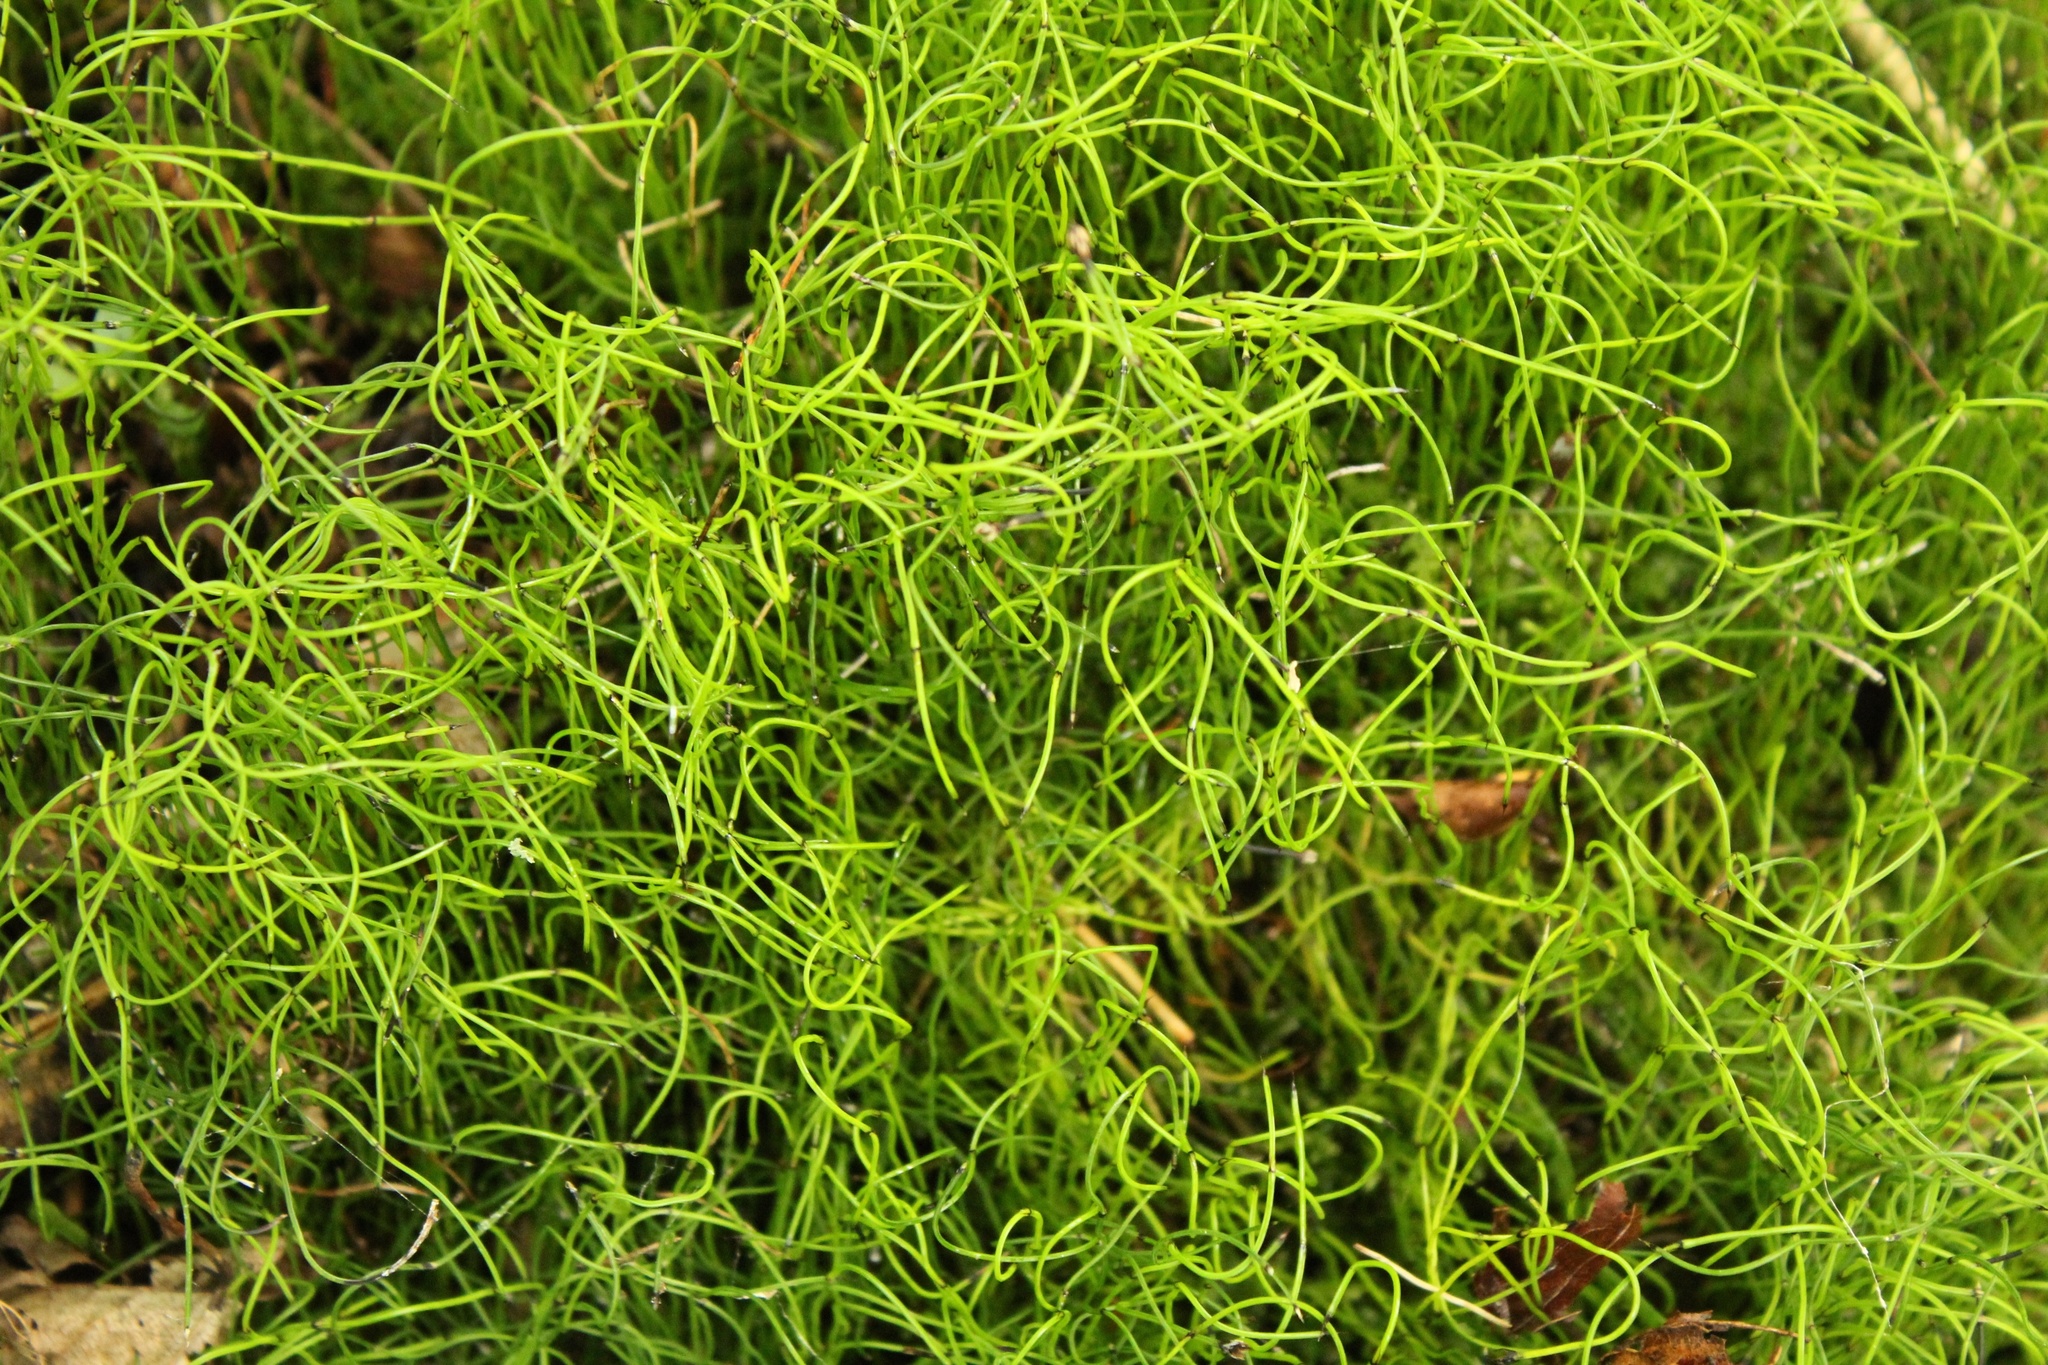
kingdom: Plantae
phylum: Tracheophyta
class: Polypodiopsida
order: Equisetales
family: Equisetaceae
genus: Equisetum
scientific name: Equisetum scirpoides
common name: Delicate horsetail
